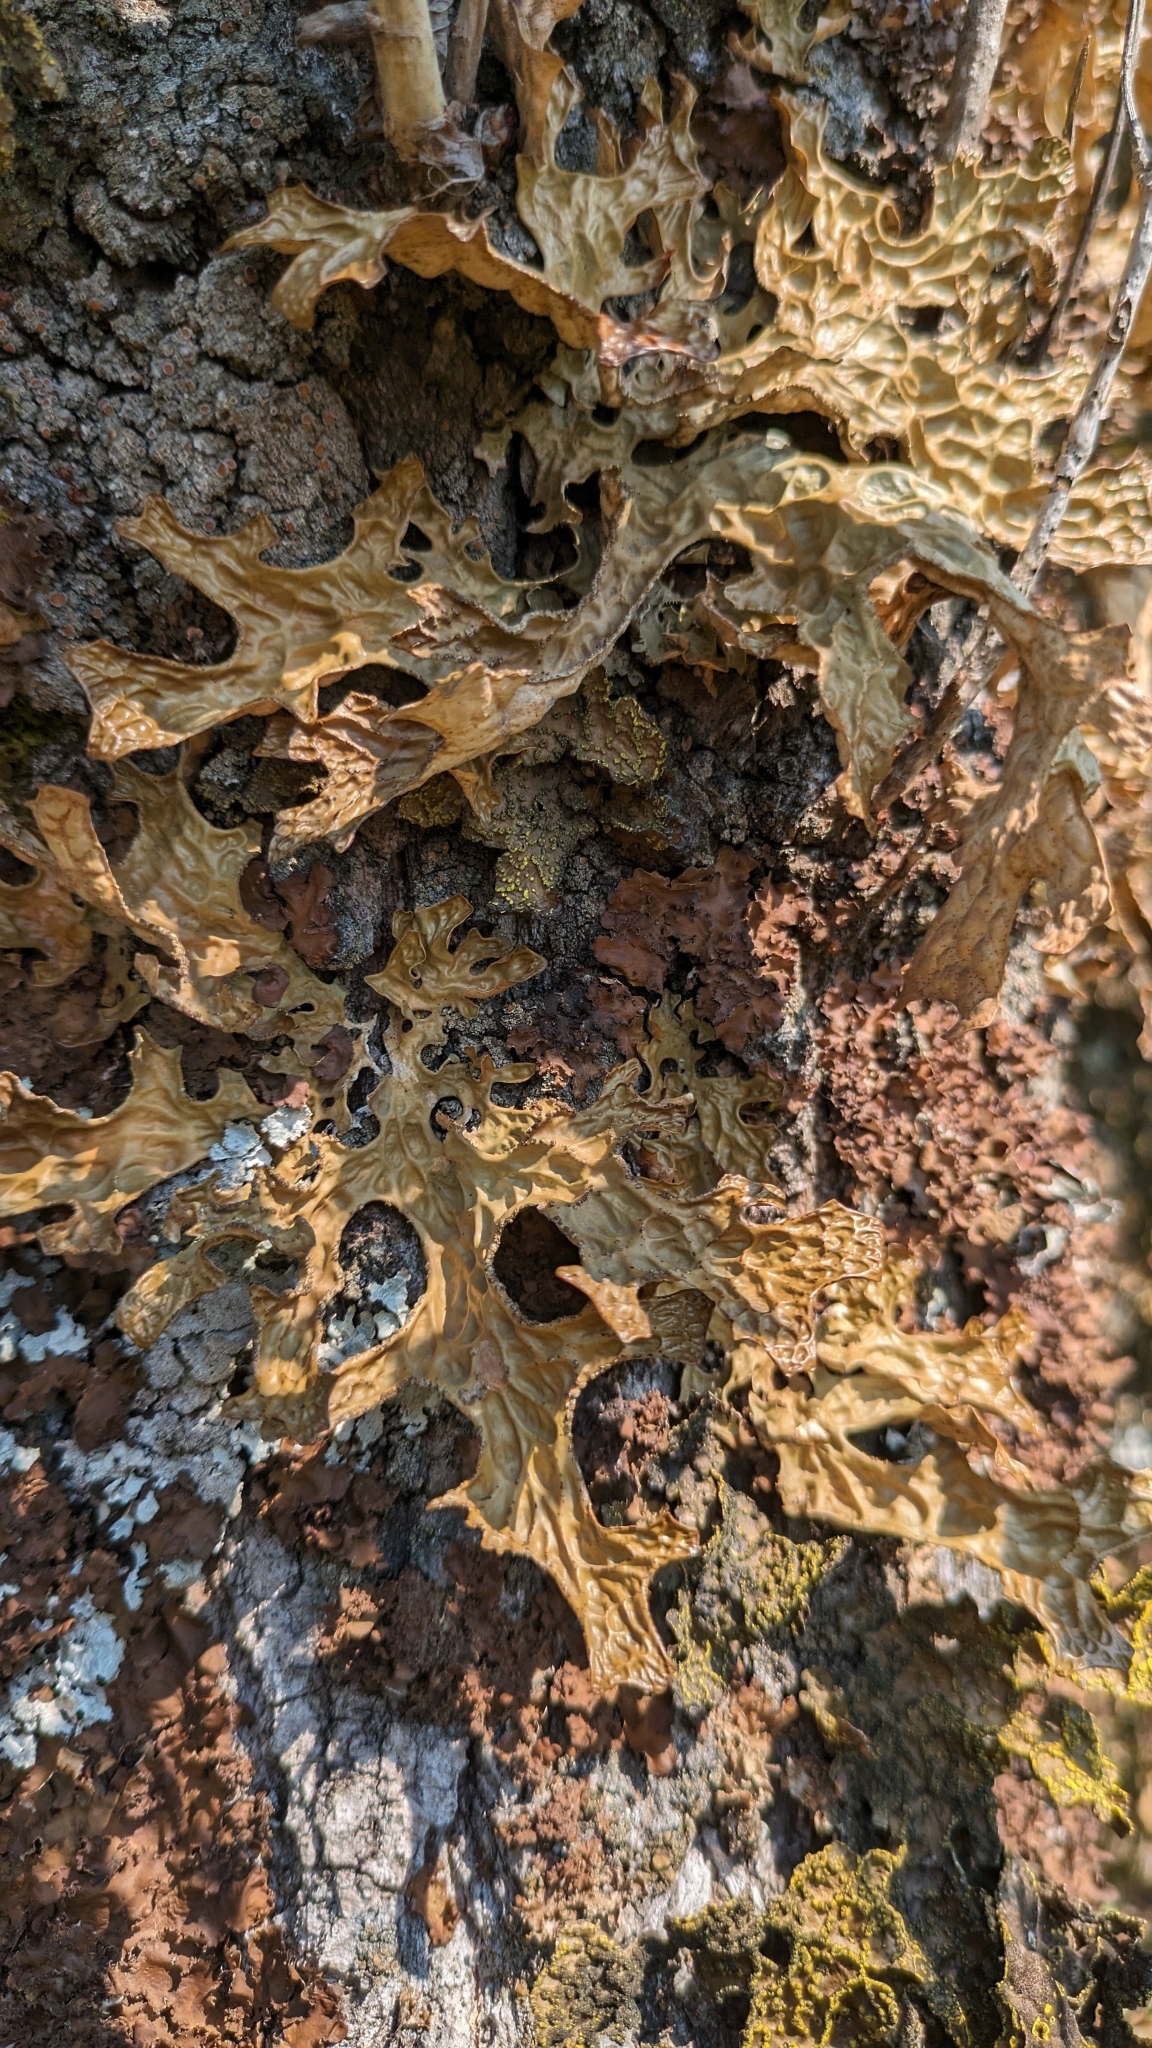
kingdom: Fungi
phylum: Ascomycota
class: Lecanoromycetes
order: Peltigerales
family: Lobariaceae
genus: Lobaria
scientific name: Lobaria pulmonaria
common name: Lungwort
